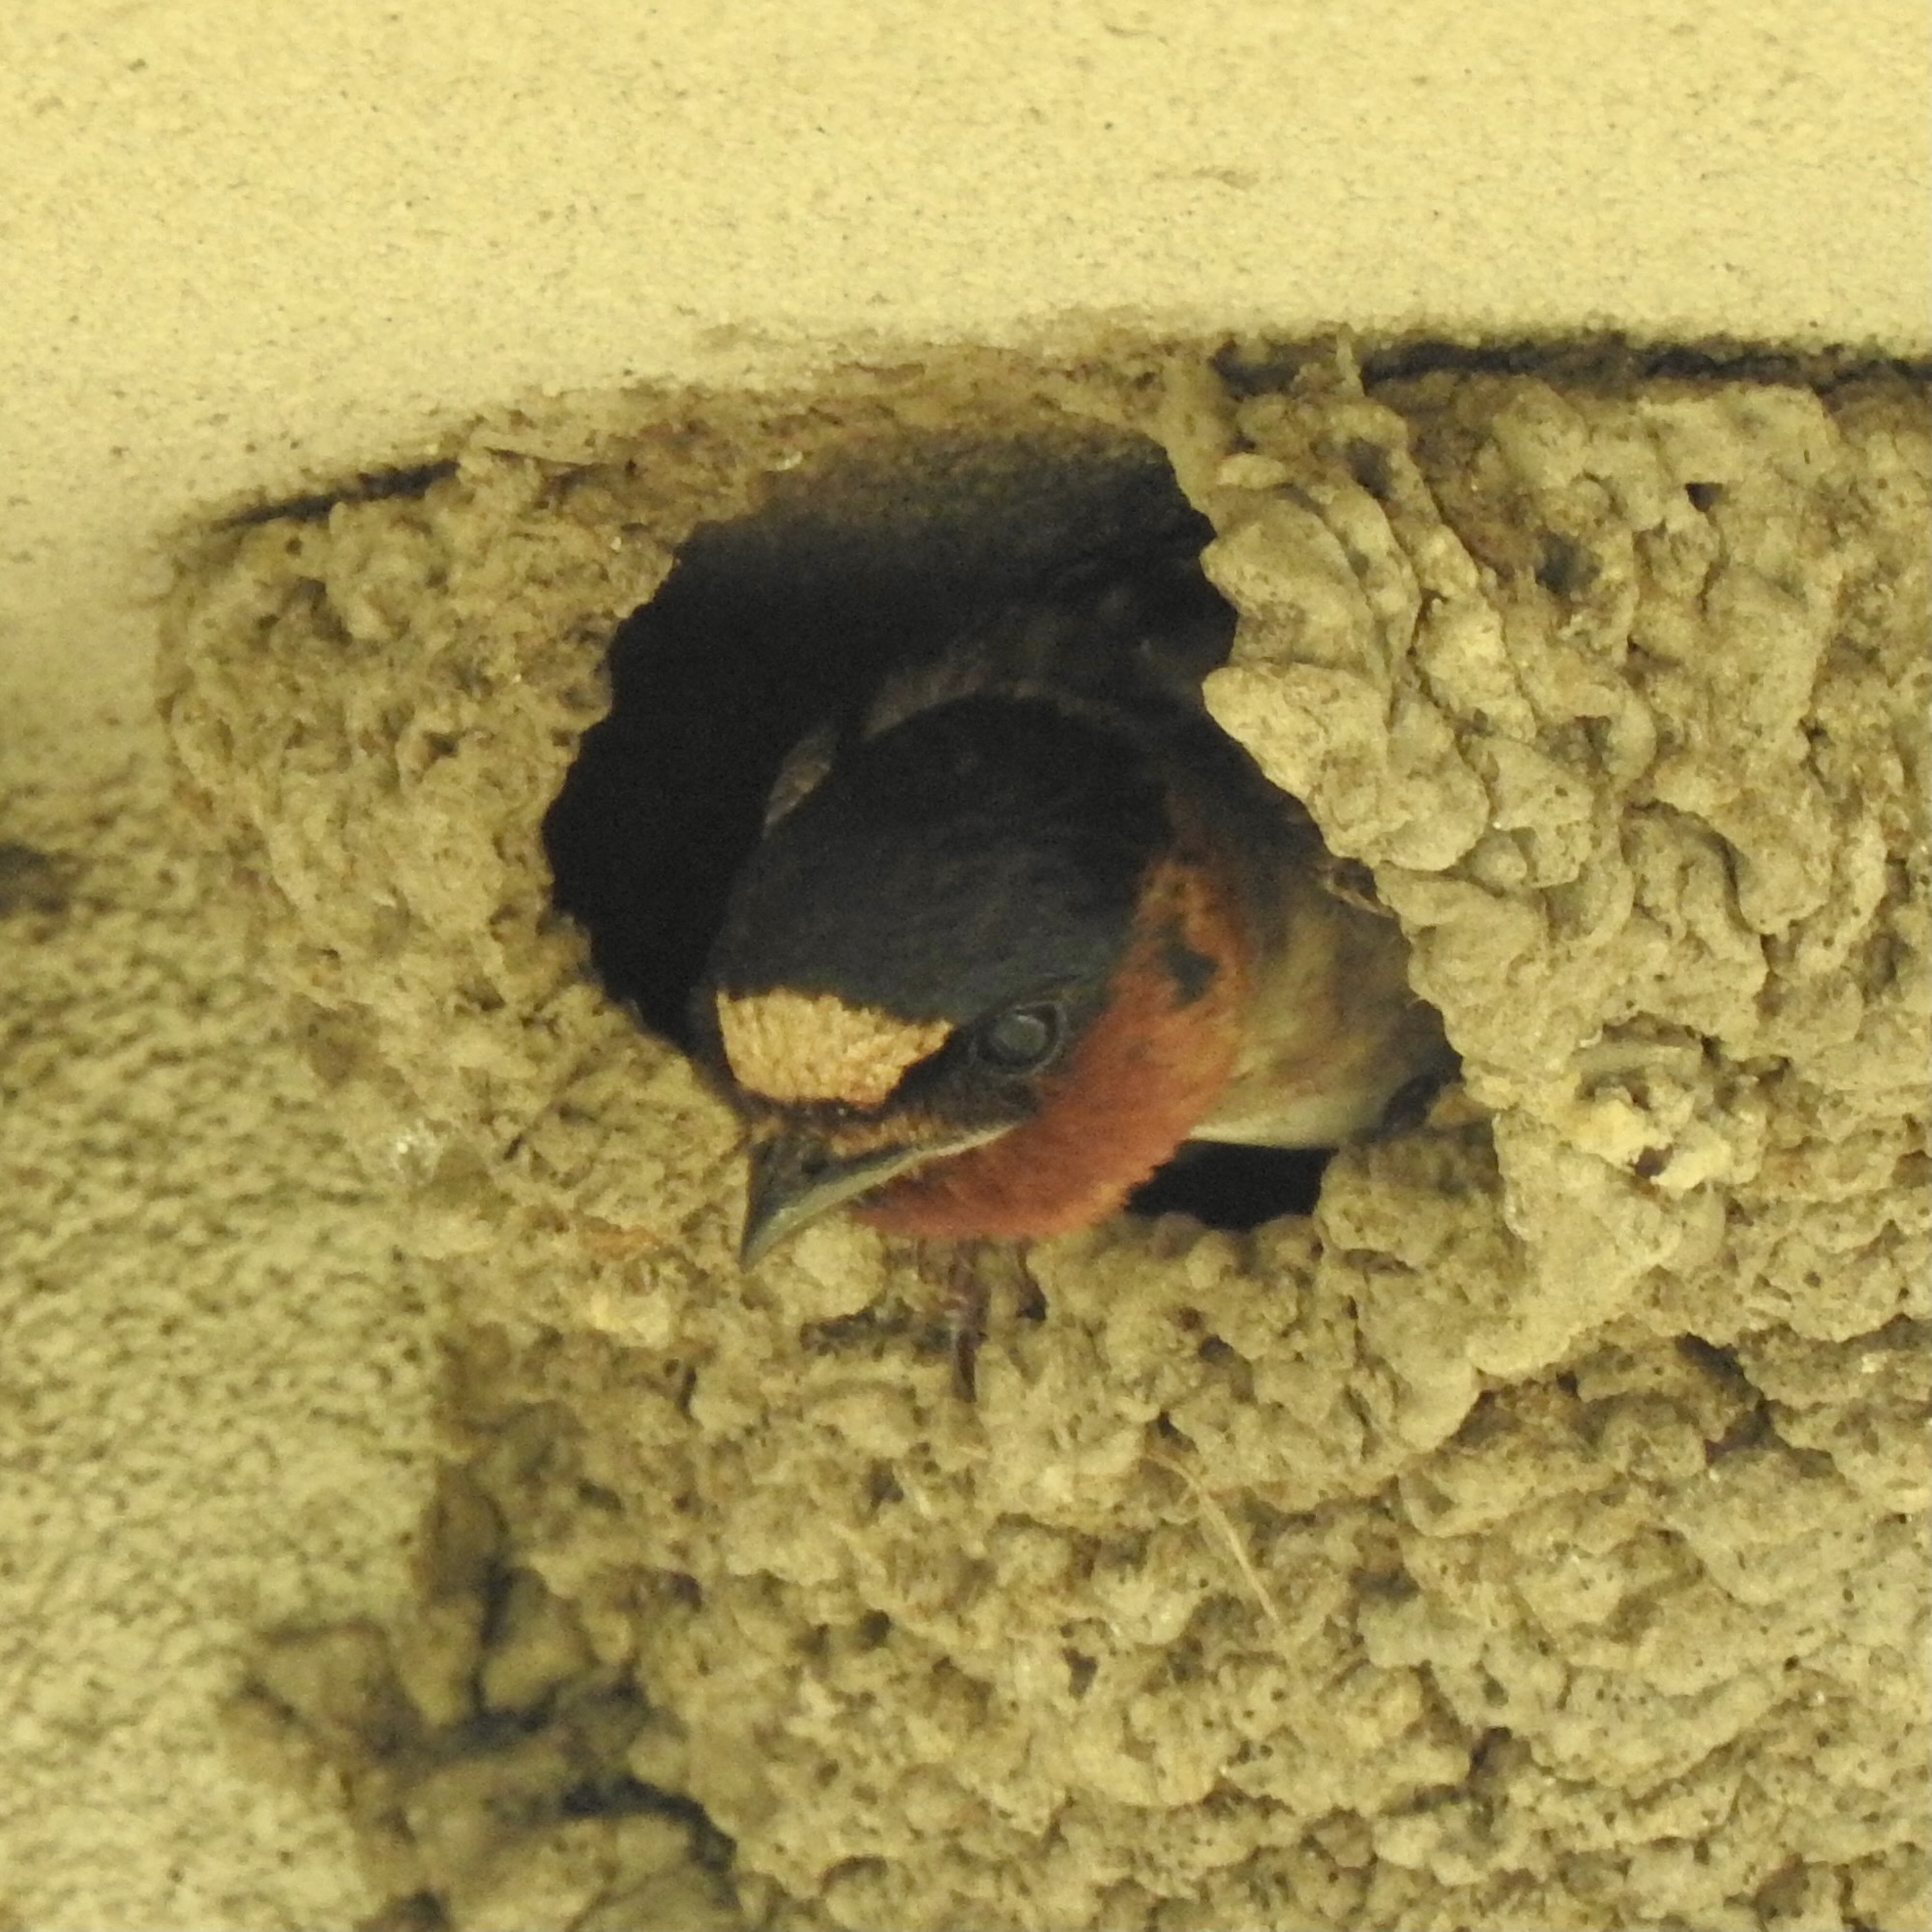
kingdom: Animalia
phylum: Chordata
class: Aves
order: Passeriformes
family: Hirundinidae
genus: Petrochelidon
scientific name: Petrochelidon pyrrhonota
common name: American cliff swallow
